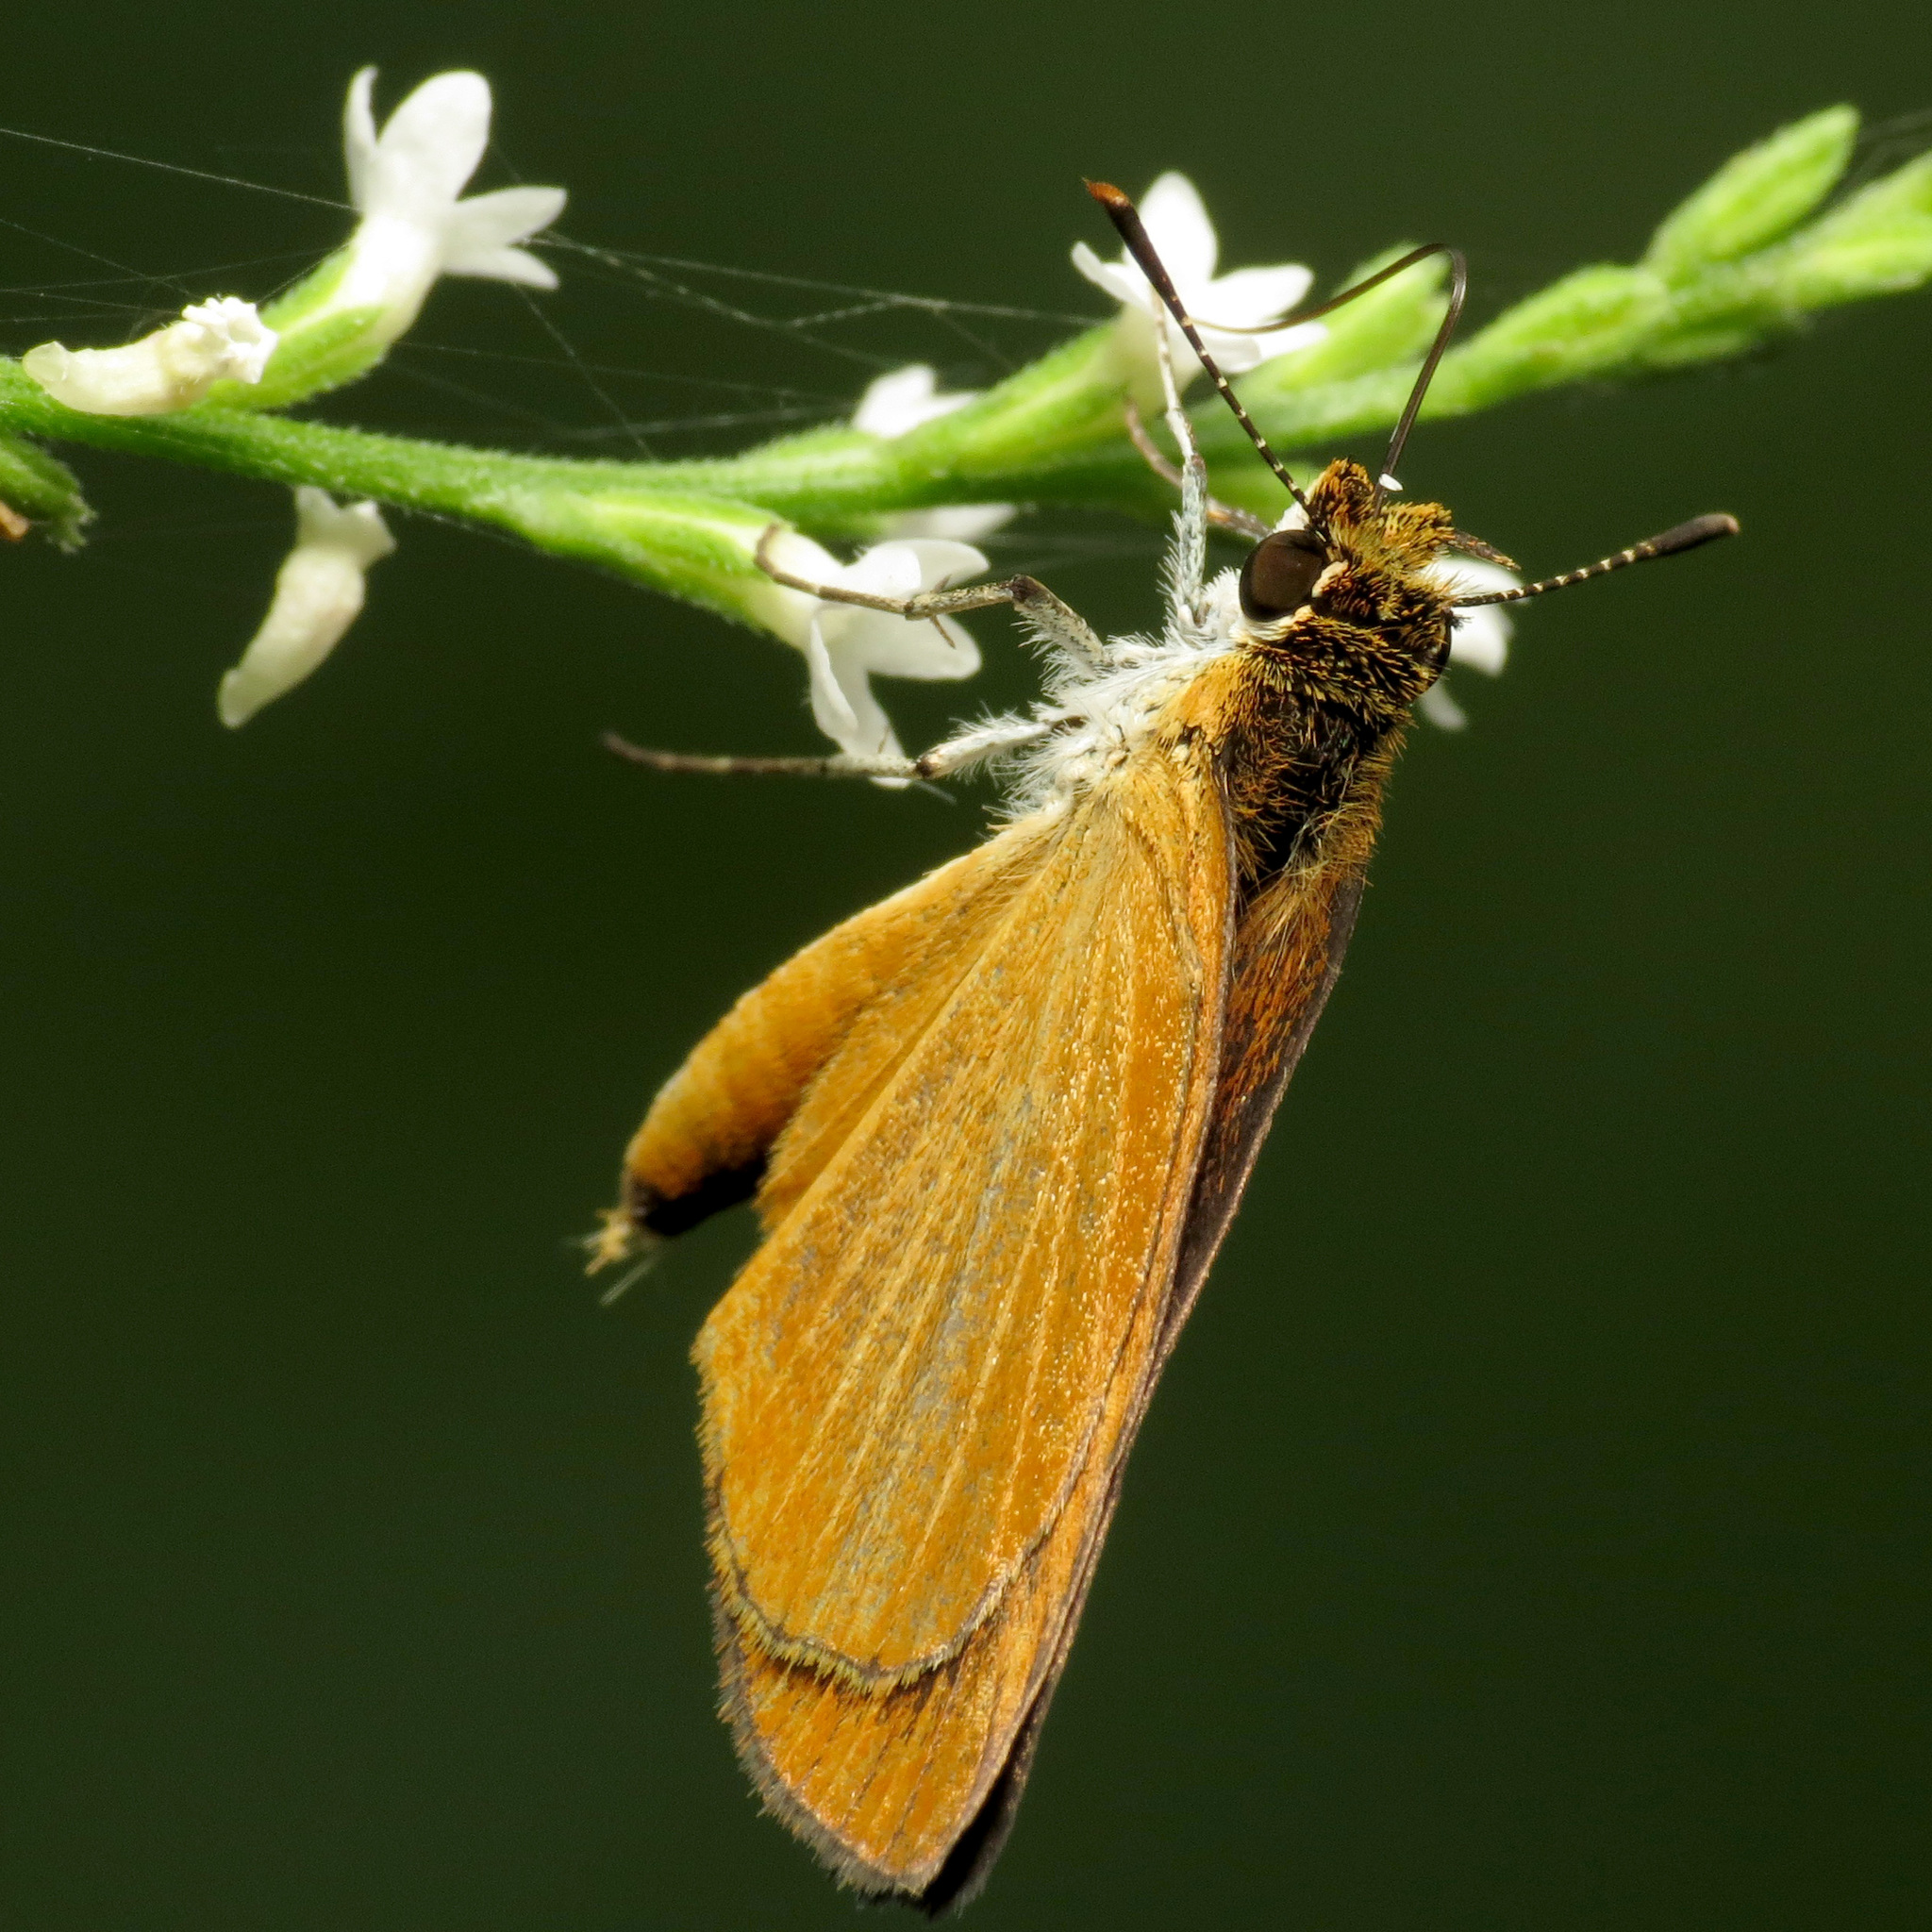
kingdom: Animalia
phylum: Arthropoda
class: Insecta
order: Lepidoptera
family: Hesperiidae
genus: Ancyloxypha
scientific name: Ancyloxypha numitor
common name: Least skipper
